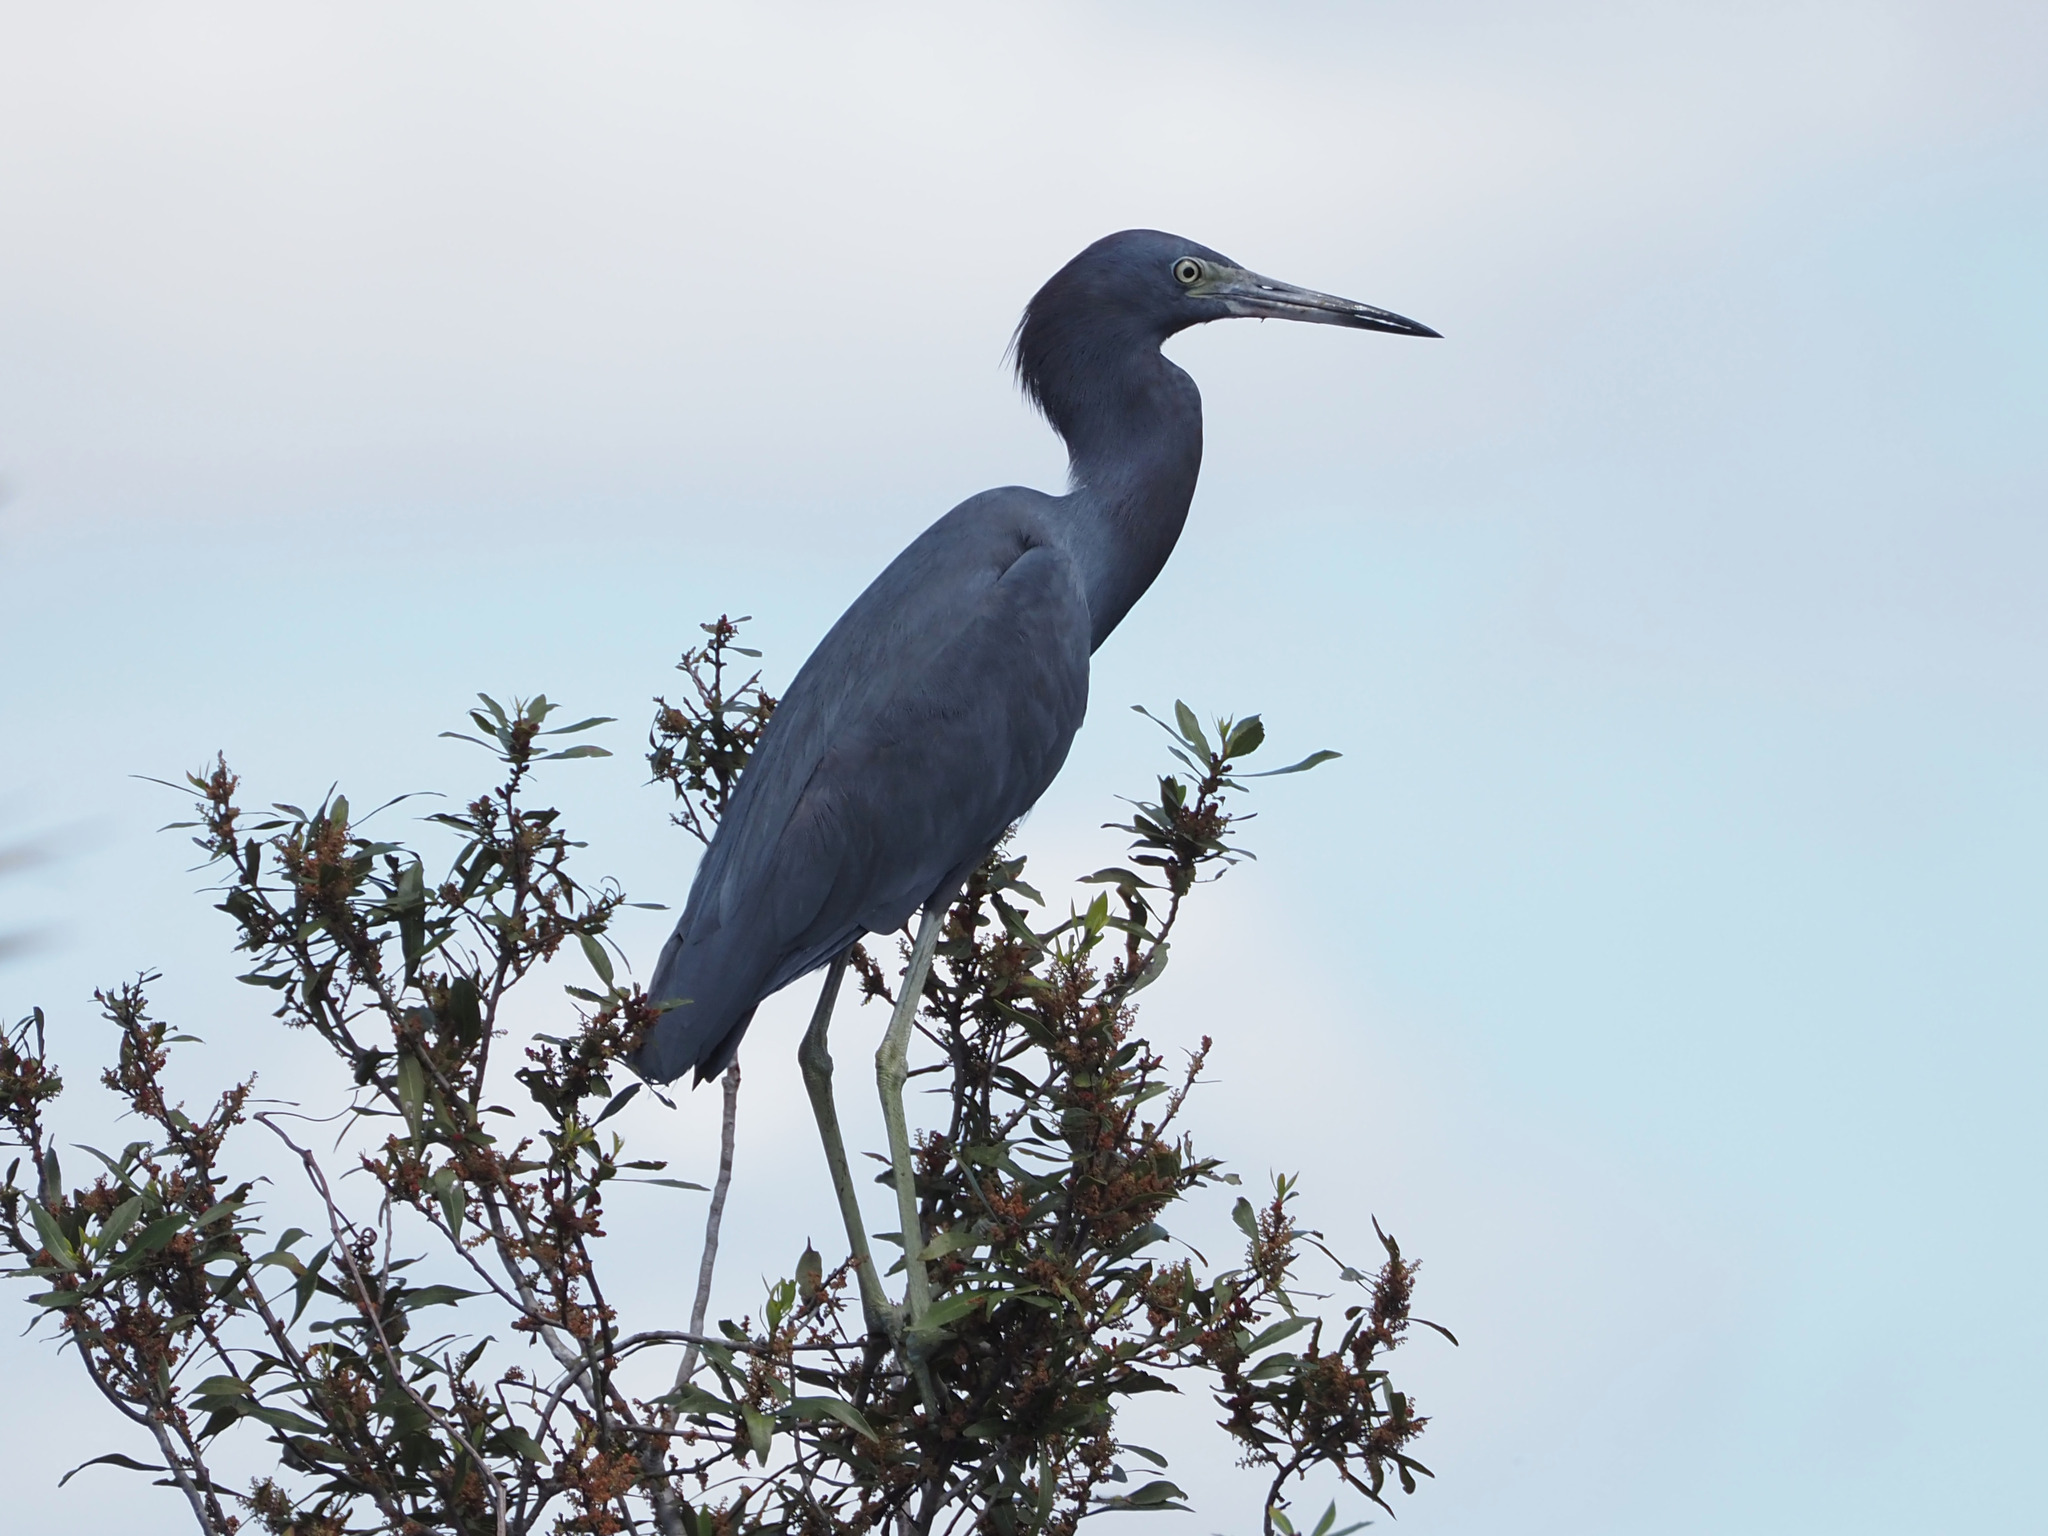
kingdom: Animalia
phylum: Chordata
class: Aves
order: Pelecaniformes
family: Ardeidae
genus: Egretta
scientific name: Egretta caerulea
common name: Little blue heron
